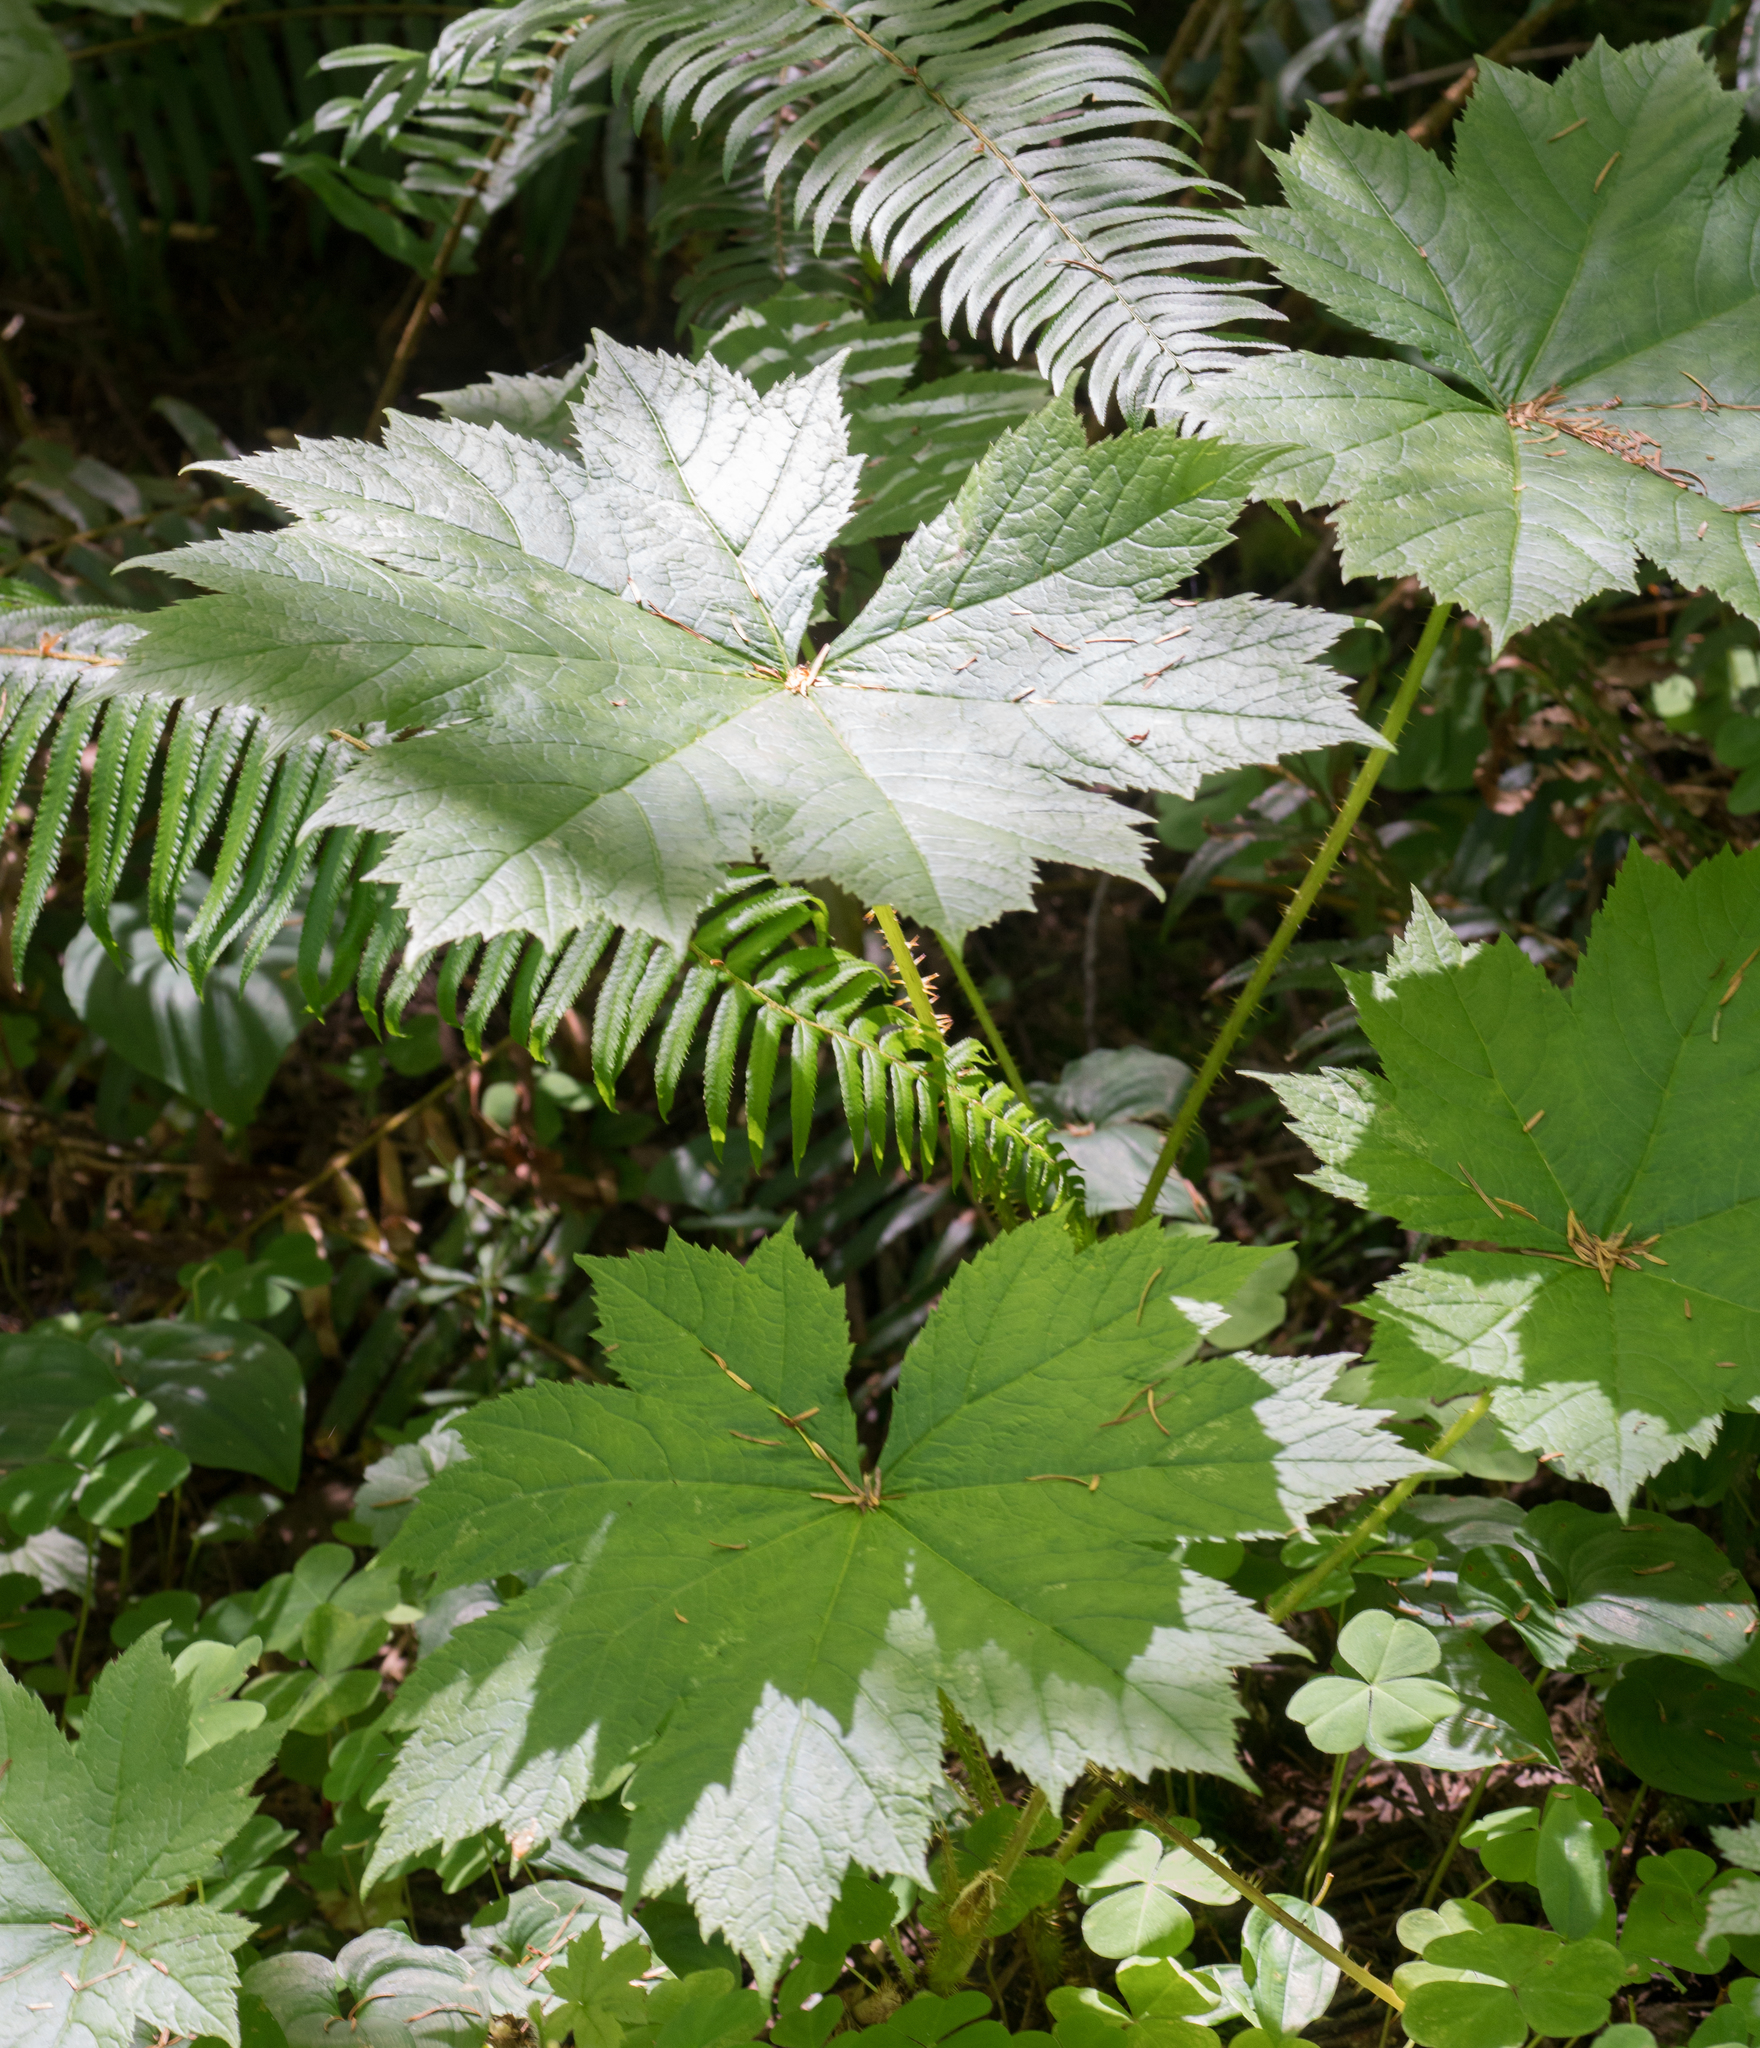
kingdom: Plantae
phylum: Tracheophyta
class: Magnoliopsida
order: Apiales
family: Araliaceae
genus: Oplopanax
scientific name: Oplopanax horridus
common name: Devil's walking-stick
